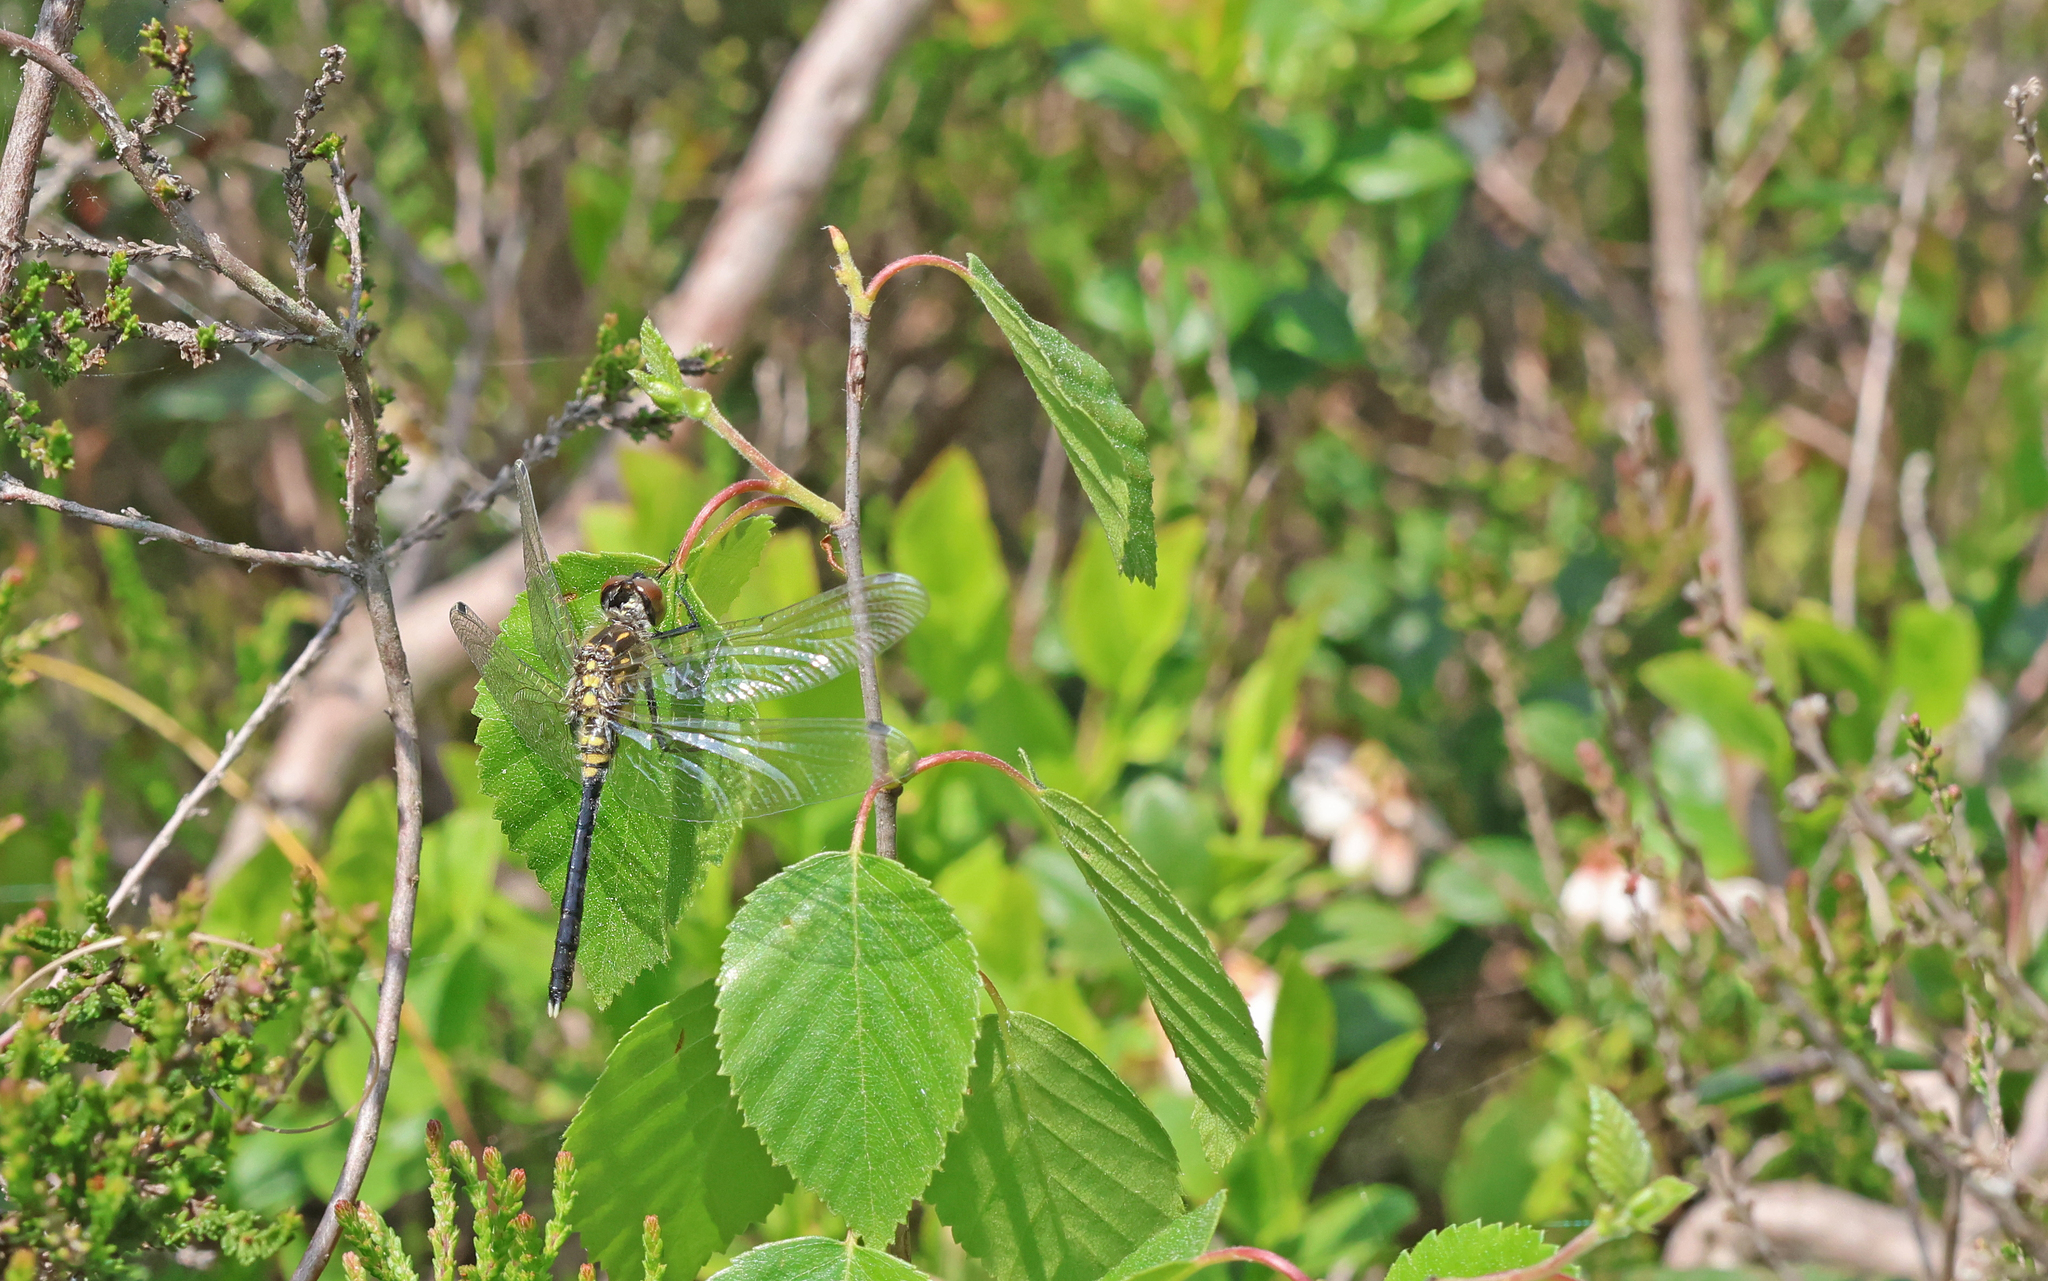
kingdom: Animalia
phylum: Arthropoda
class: Insecta
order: Odonata
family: Libellulidae
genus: Leucorrhinia
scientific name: Leucorrhinia albifrons
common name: Dark whiteface
